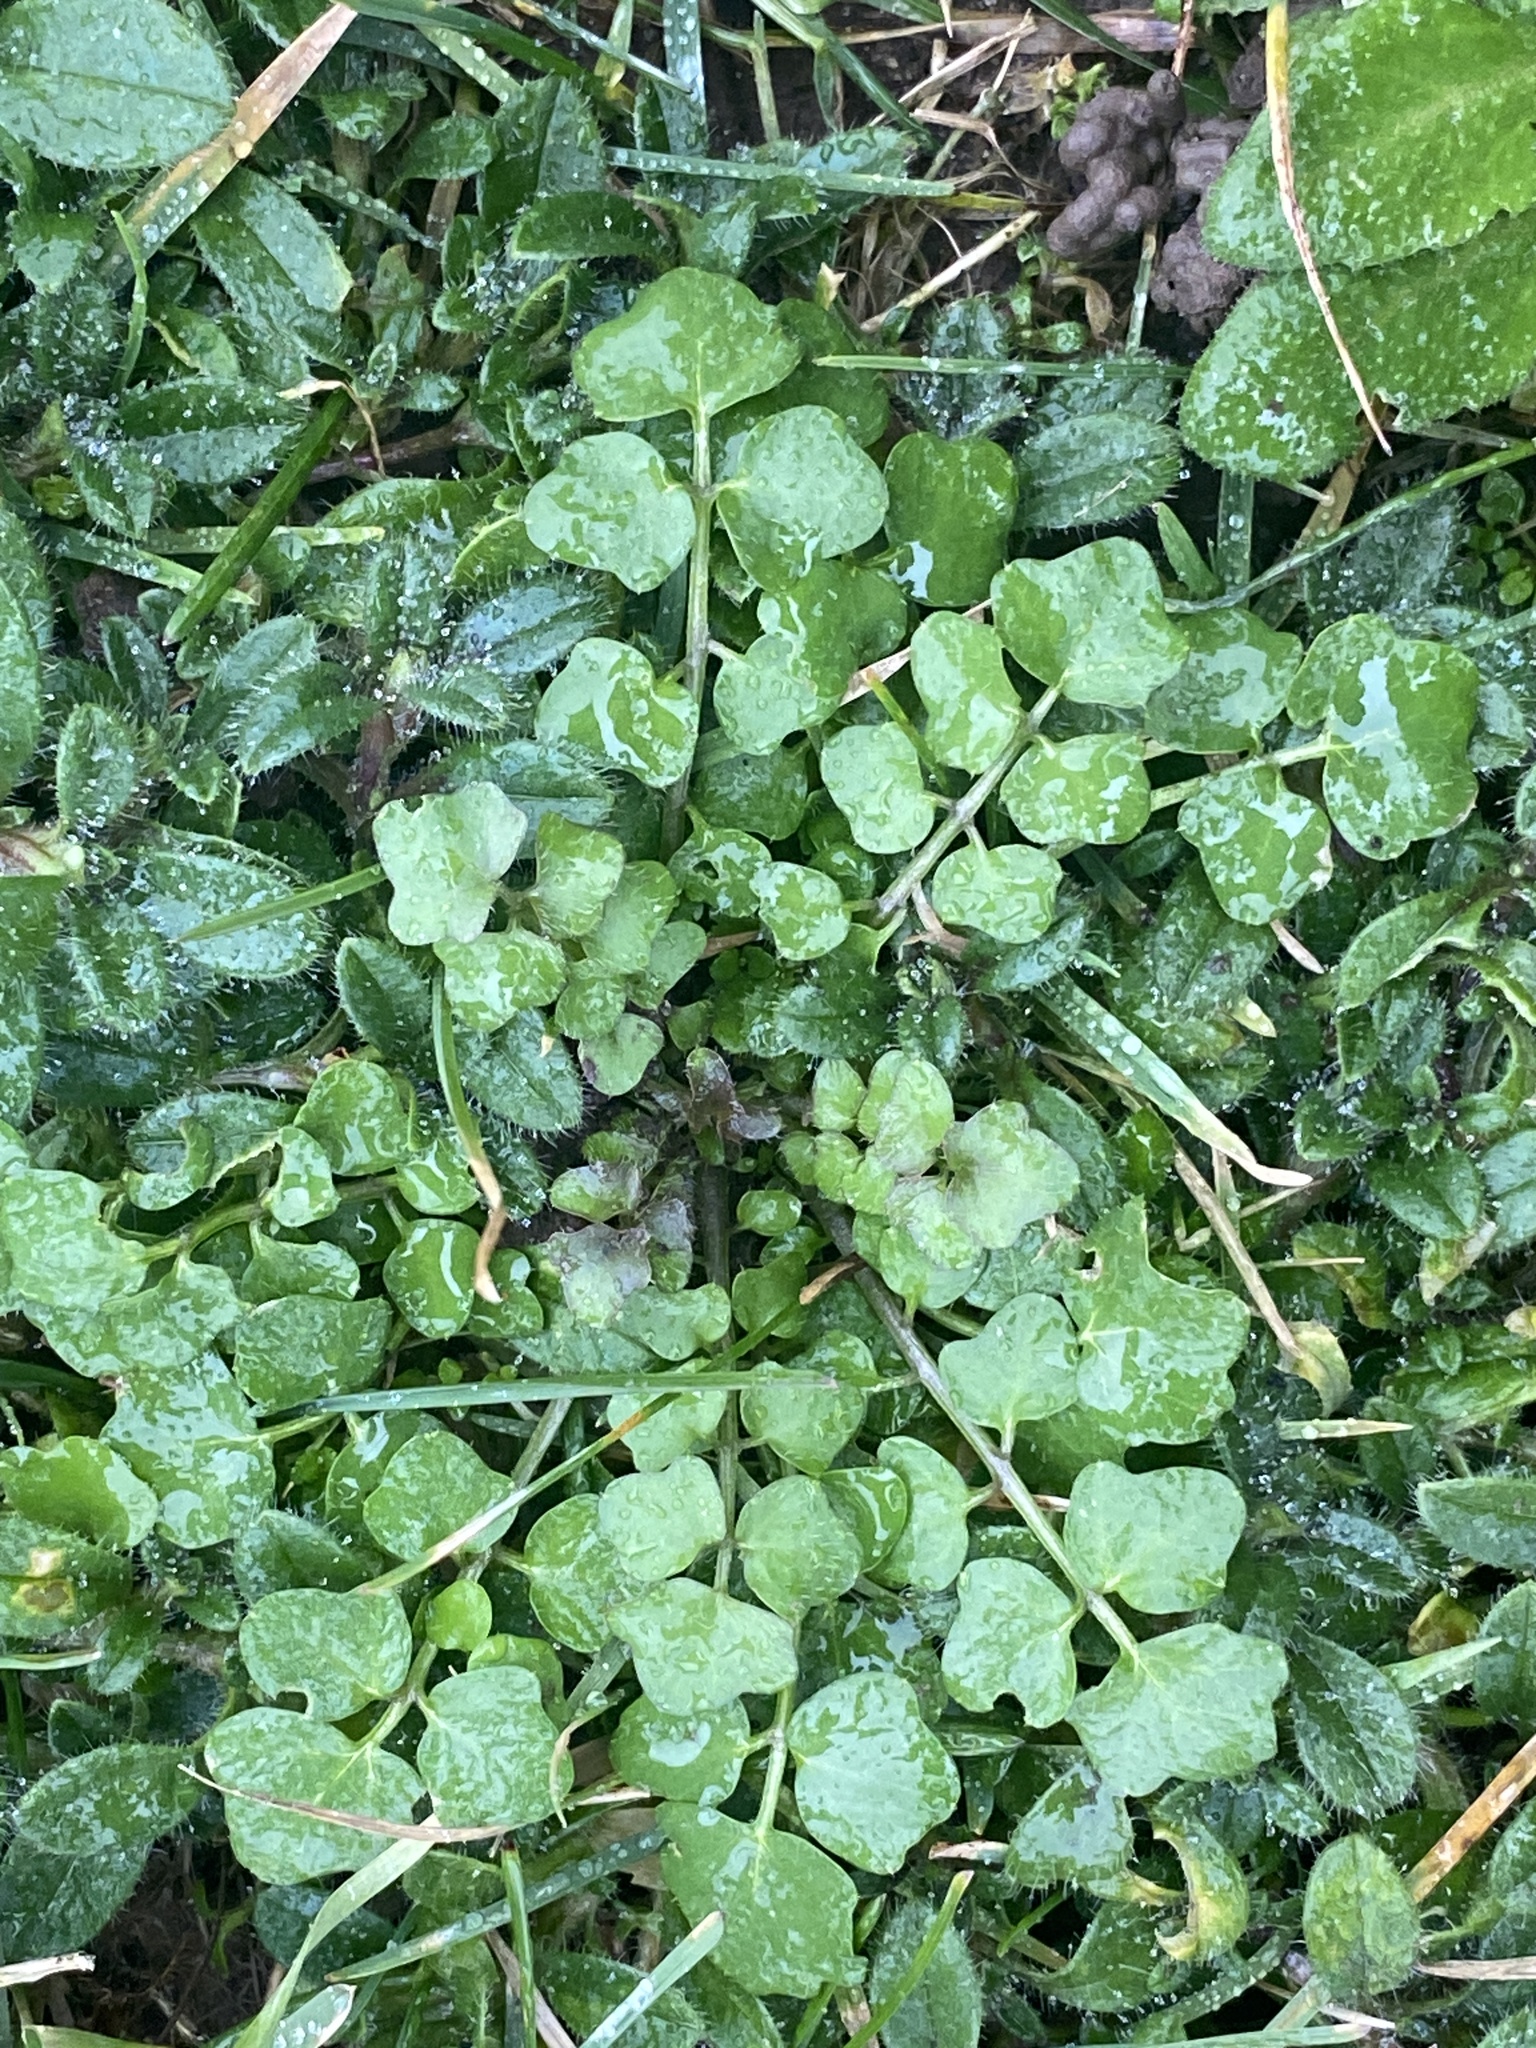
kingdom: Plantae
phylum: Tracheophyta
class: Magnoliopsida
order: Brassicales
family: Brassicaceae
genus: Cardamine
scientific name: Cardamine hirsuta
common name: Hairy bittercress
